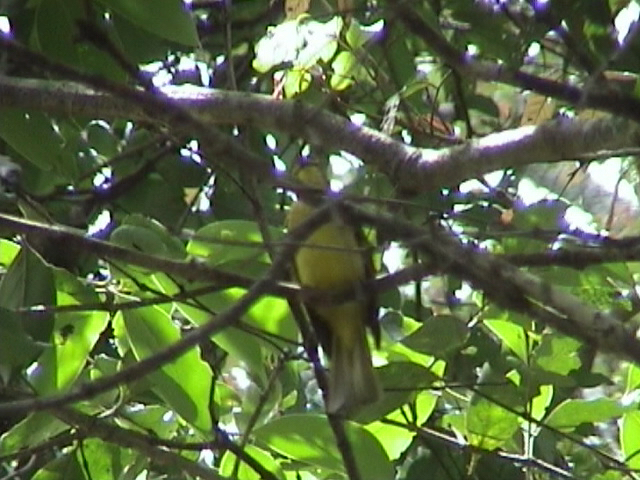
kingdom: Animalia
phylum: Chordata
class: Aves
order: Passeriformes
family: Pycnonotidae
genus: Acritillas
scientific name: Acritillas indica
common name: Yellow-browed bulbul
